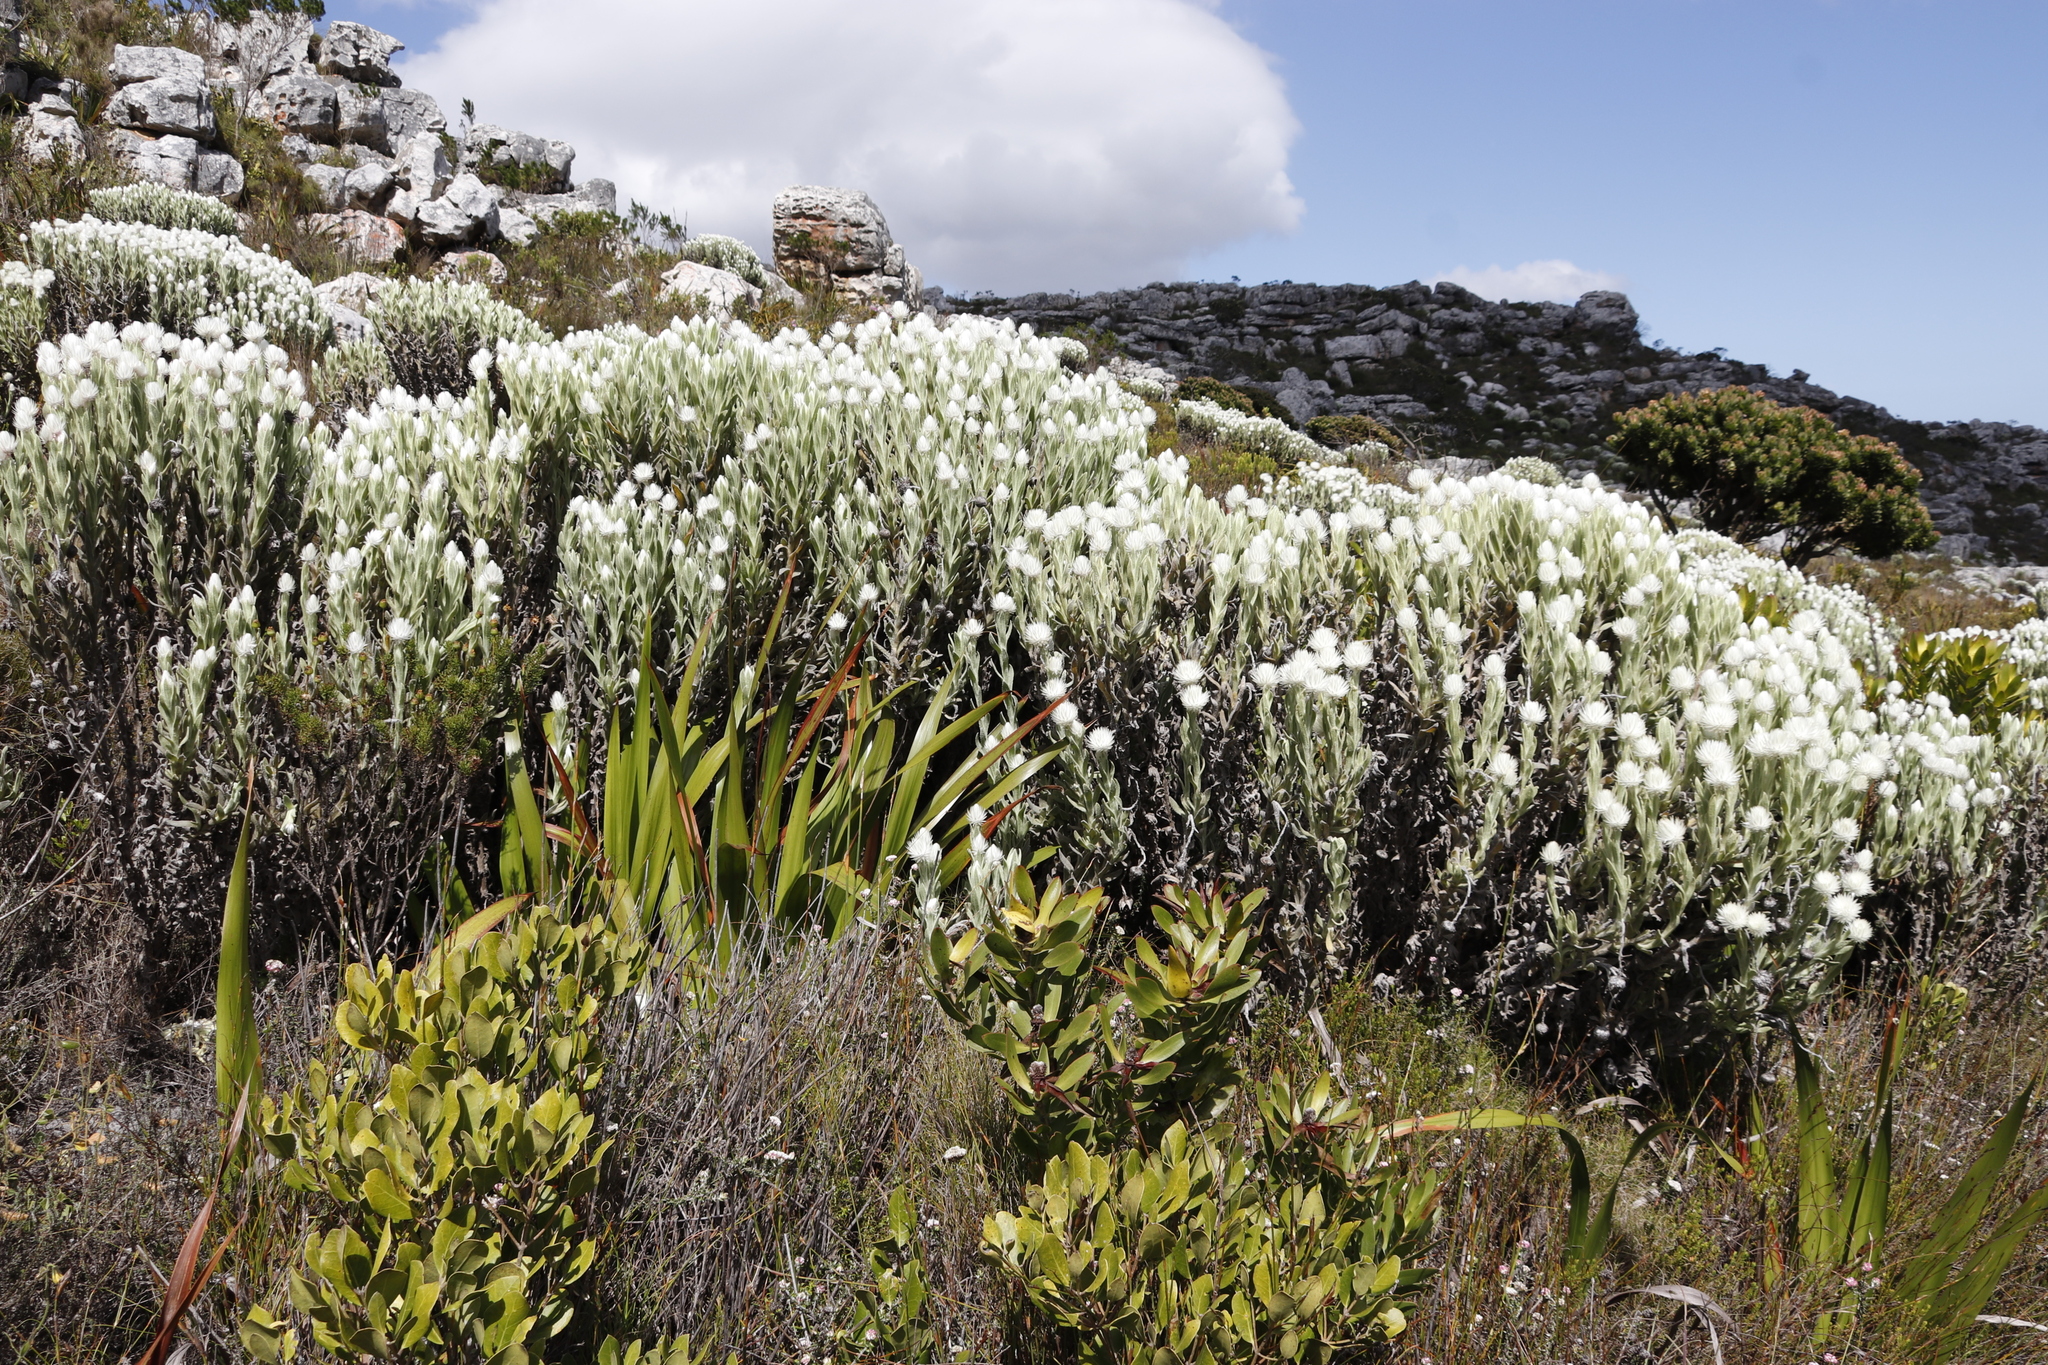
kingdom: Plantae
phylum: Tracheophyta
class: Magnoliopsida
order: Asterales
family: Asteraceae
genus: Syncarpha
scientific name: Syncarpha vestita
